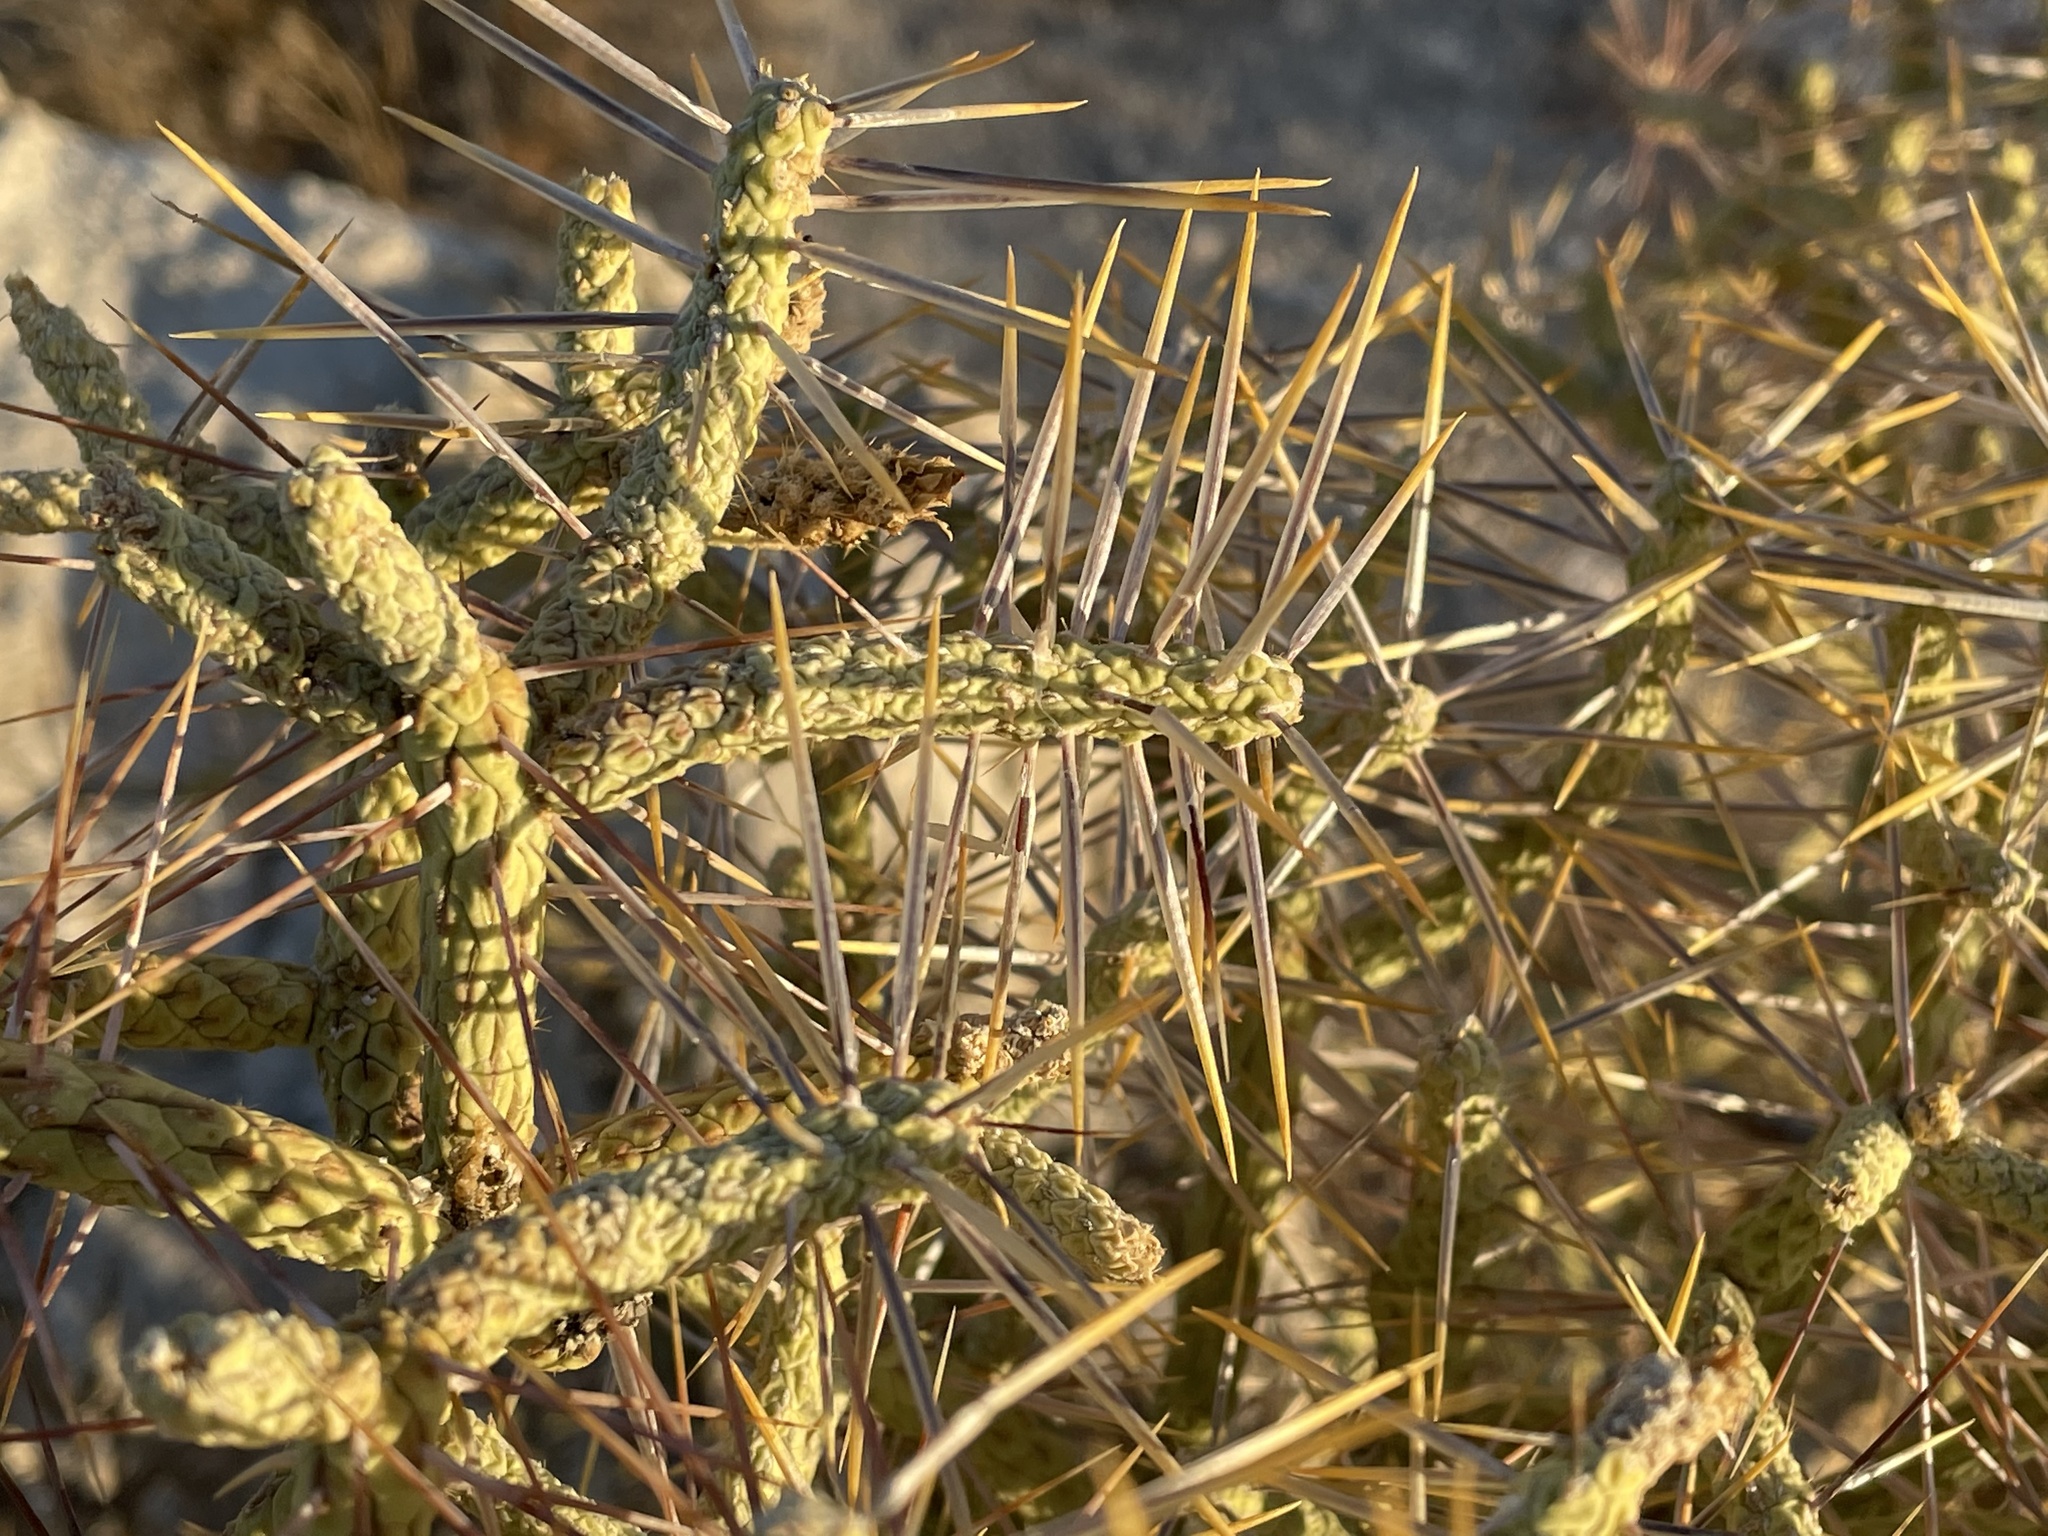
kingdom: Plantae
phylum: Tracheophyta
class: Magnoliopsida
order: Caryophyllales
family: Cactaceae
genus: Cylindropuntia
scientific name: Cylindropuntia ramosissima
